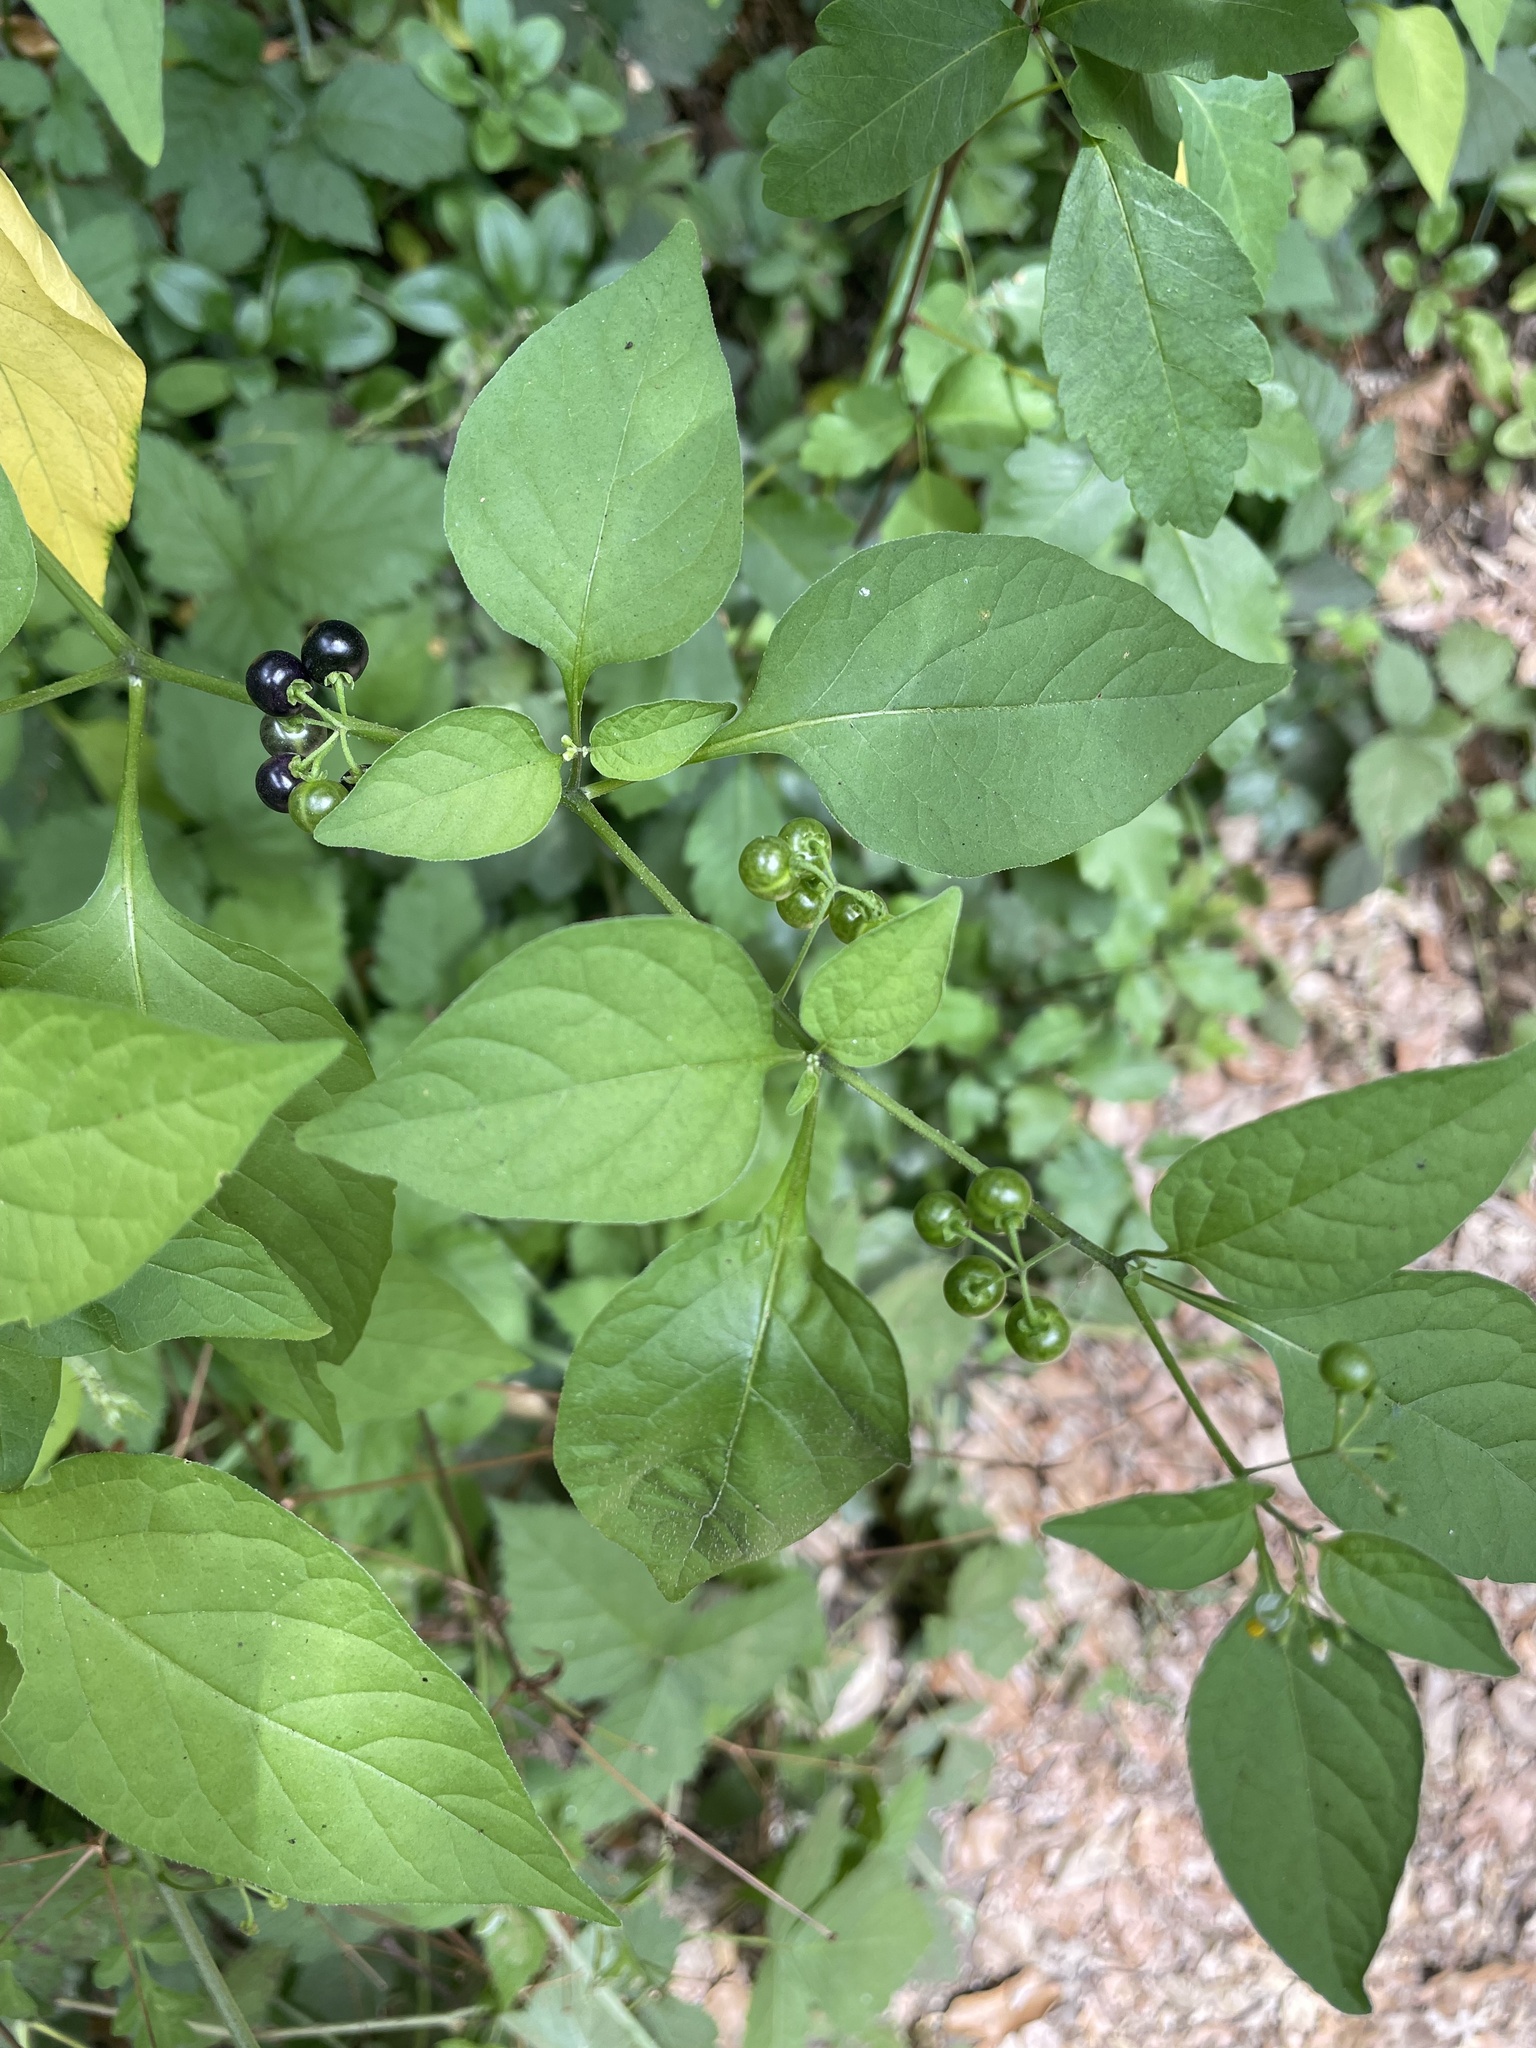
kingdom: Plantae
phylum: Tracheophyta
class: Magnoliopsida
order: Solanales
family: Solanaceae
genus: Solanum
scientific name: Solanum americanum
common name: American black nightshade
